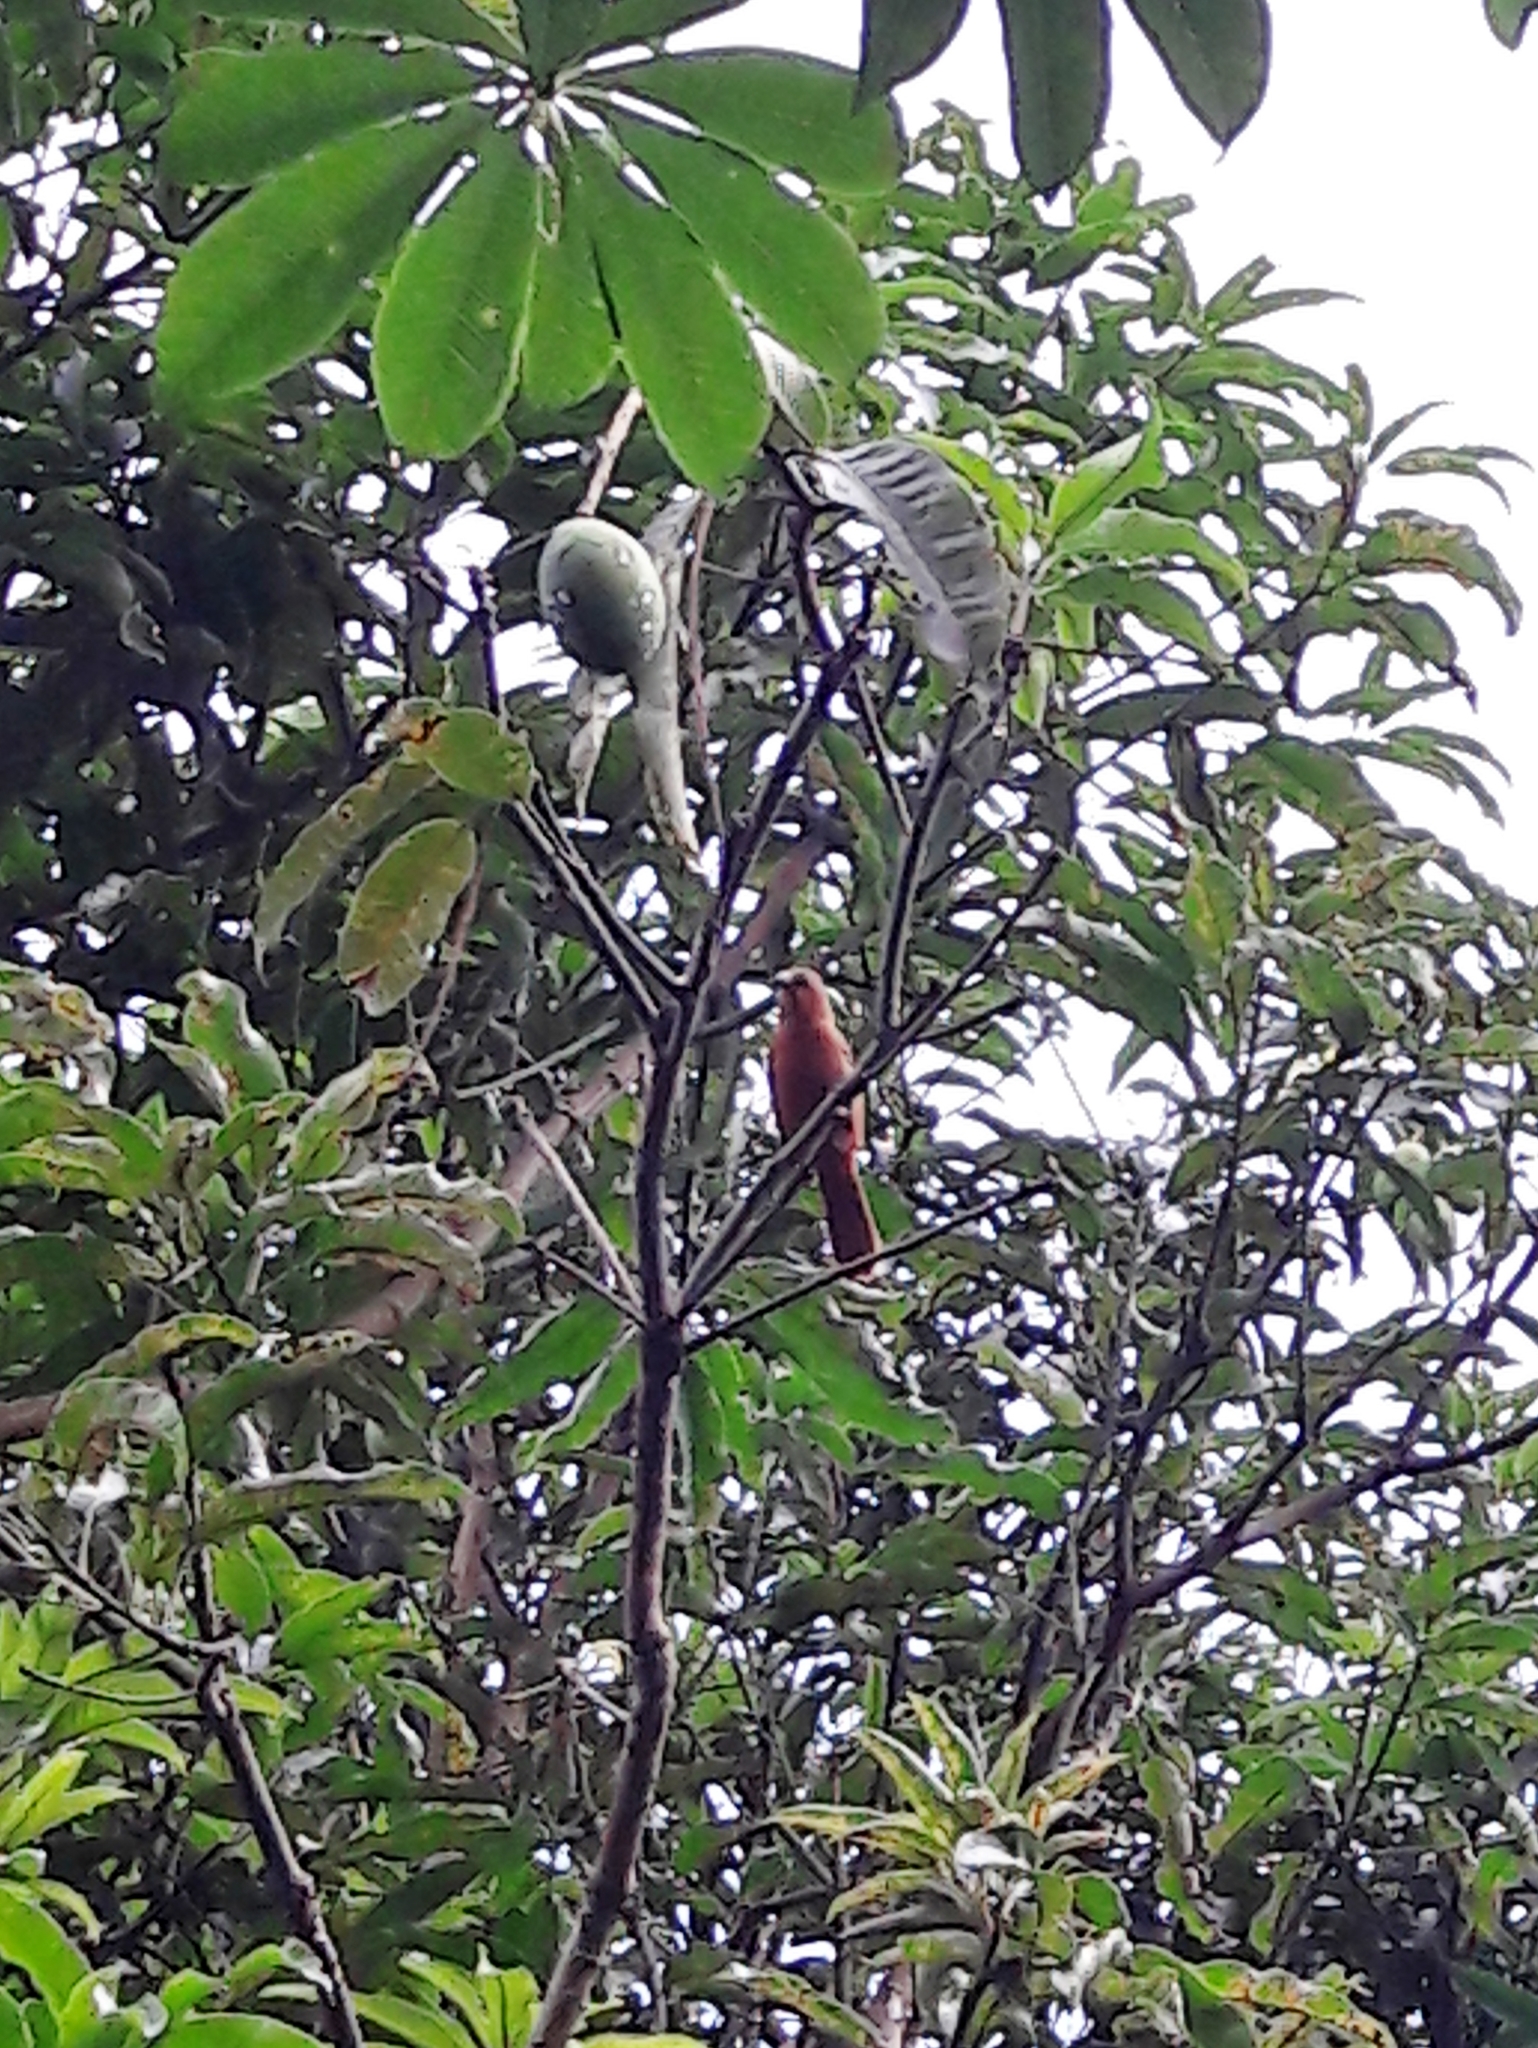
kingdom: Animalia
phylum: Chordata
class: Aves
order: Passeriformes
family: Thraupidae
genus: Tachyphonus
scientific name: Tachyphonus rufus
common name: White-lined tanager
